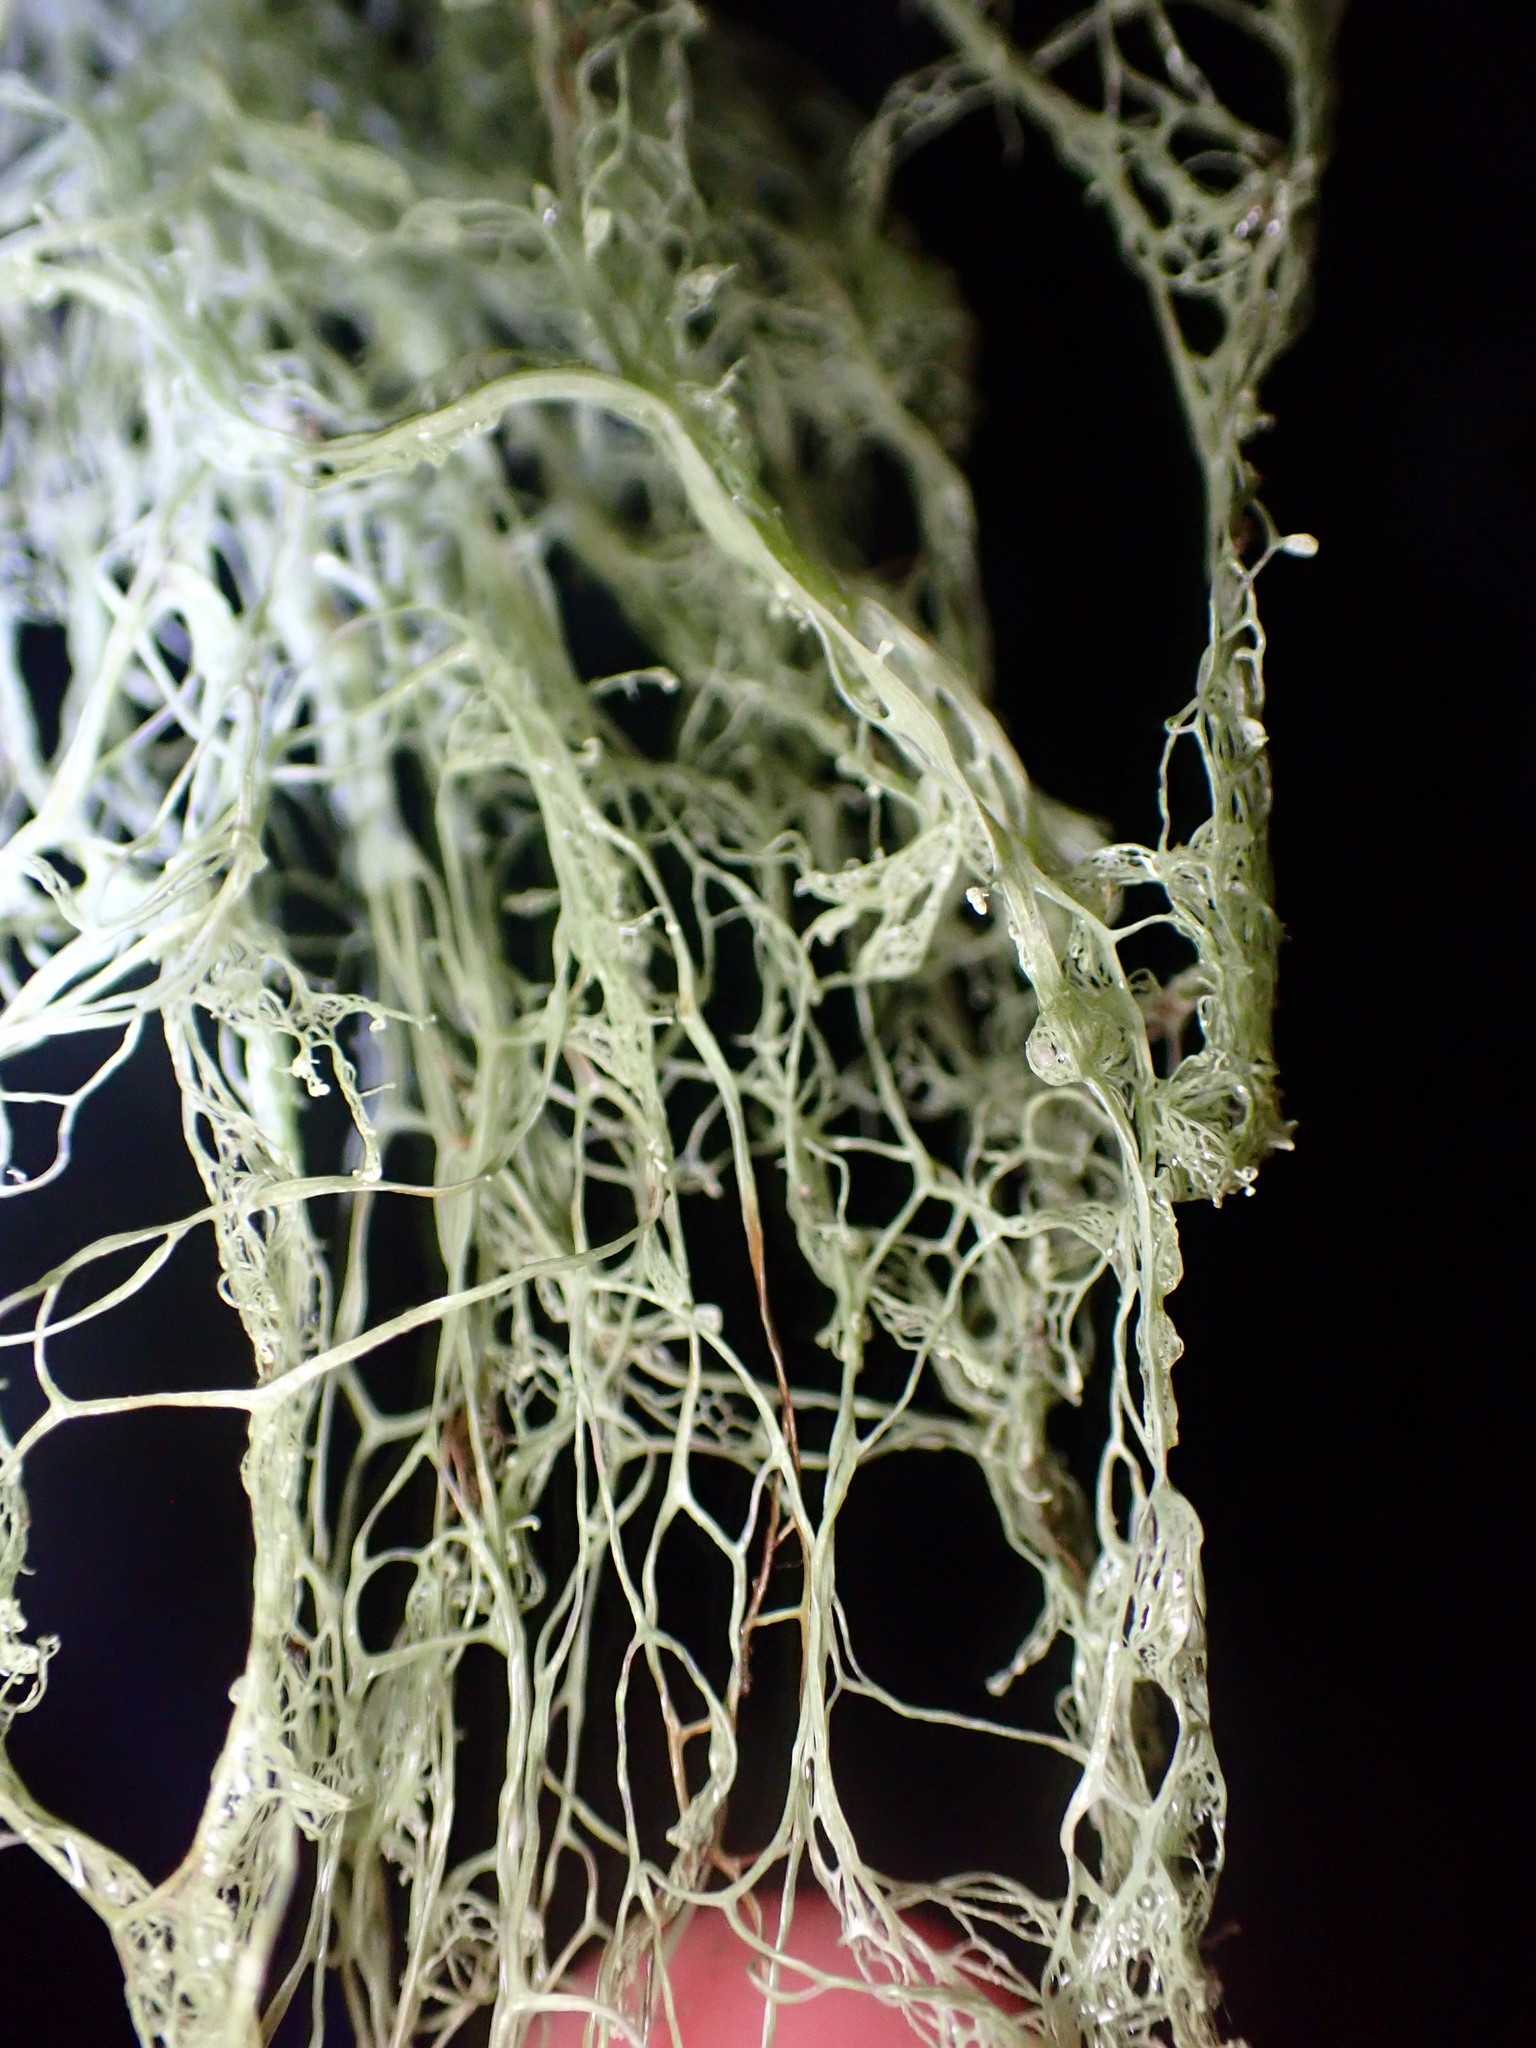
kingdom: Fungi
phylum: Ascomycota
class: Lecanoromycetes
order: Lecanorales
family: Ramalinaceae
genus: Ramalina
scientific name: Ramalina menziesii
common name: Lace lichen
